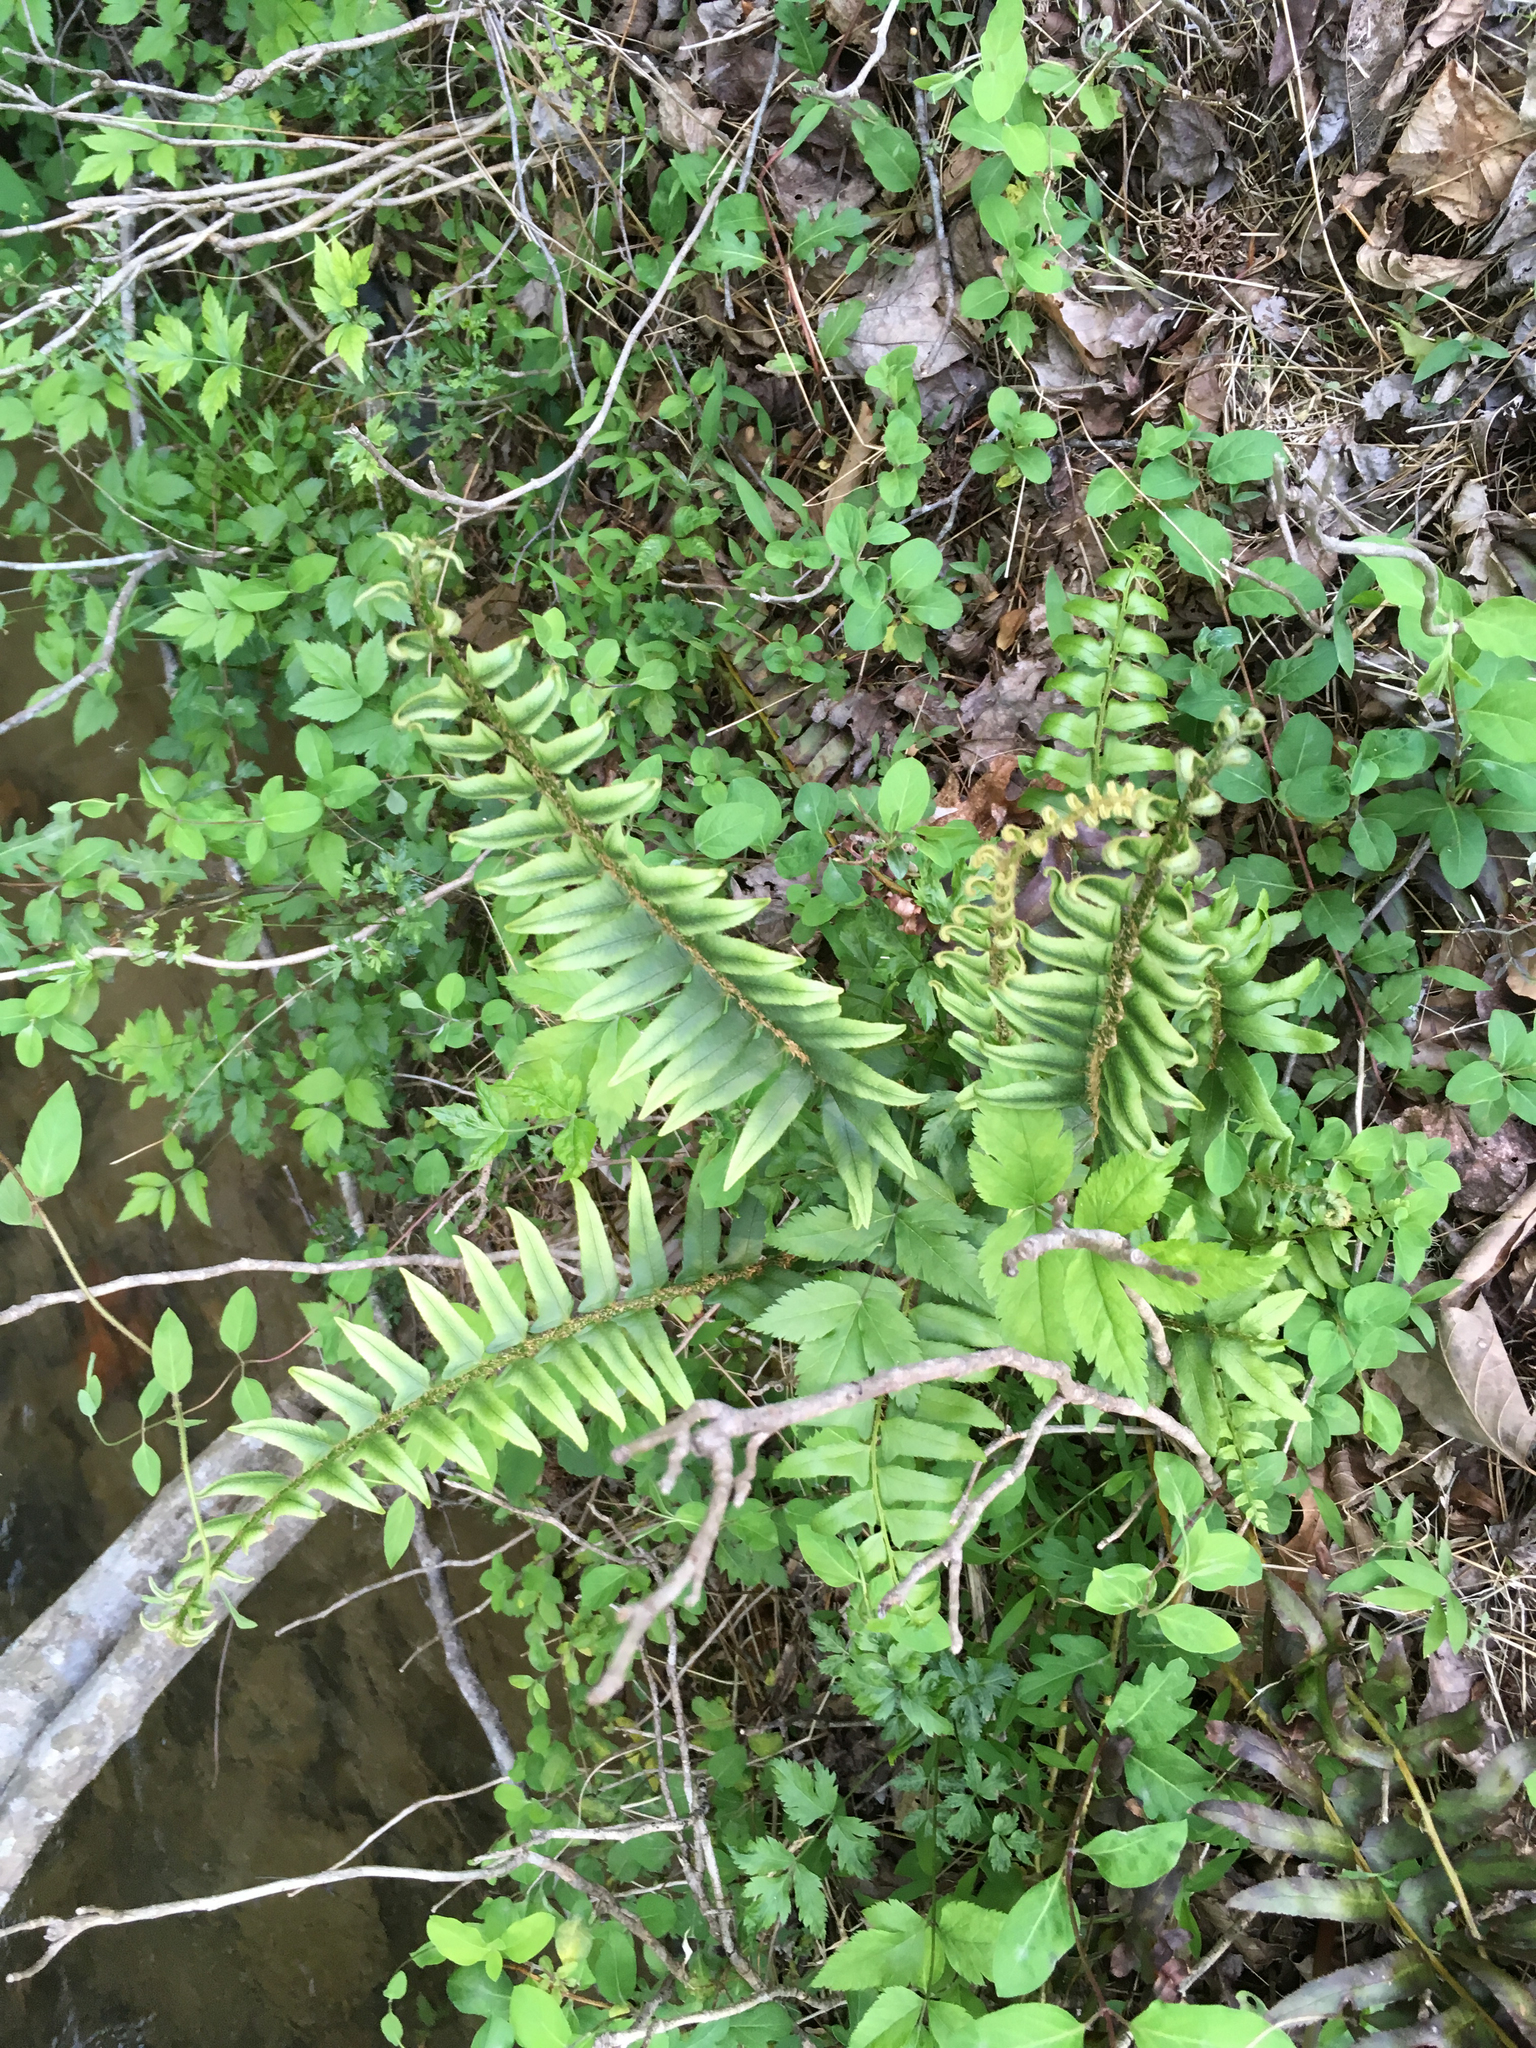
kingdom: Plantae
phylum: Tracheophyta
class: Polypodiopsida
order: Polypodiales
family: Dryopteridaceae
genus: Polystichum
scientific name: Polystichum acrostichoides
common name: Christmas fern
